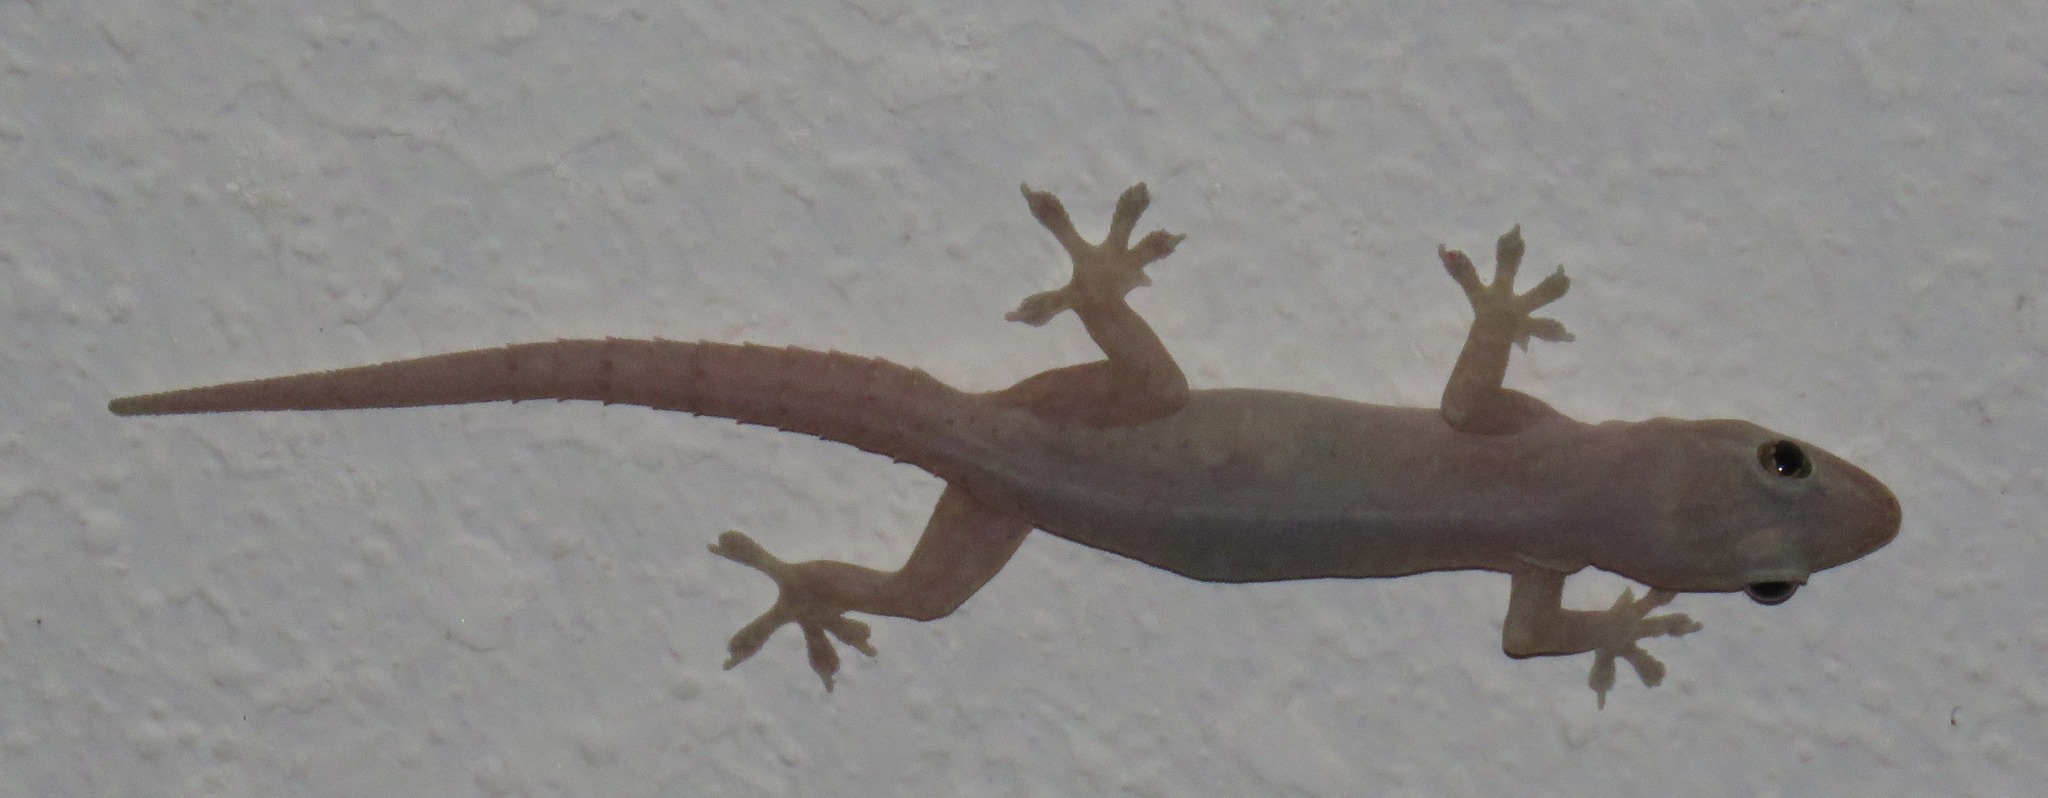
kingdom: Animalia
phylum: Chordata
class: Squamata
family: Gekkonidae
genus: Hemidactylus
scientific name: Hemidactylus frenatus
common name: Common house gecko
